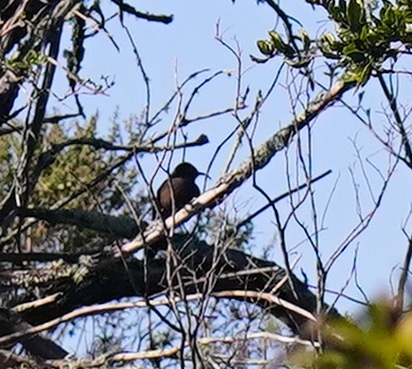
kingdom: Animalia
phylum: Chordata
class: Aves
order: Passeriformes
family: Mimidae
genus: Toxostoma
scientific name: Toxostoma redivivum
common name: California thrasher
